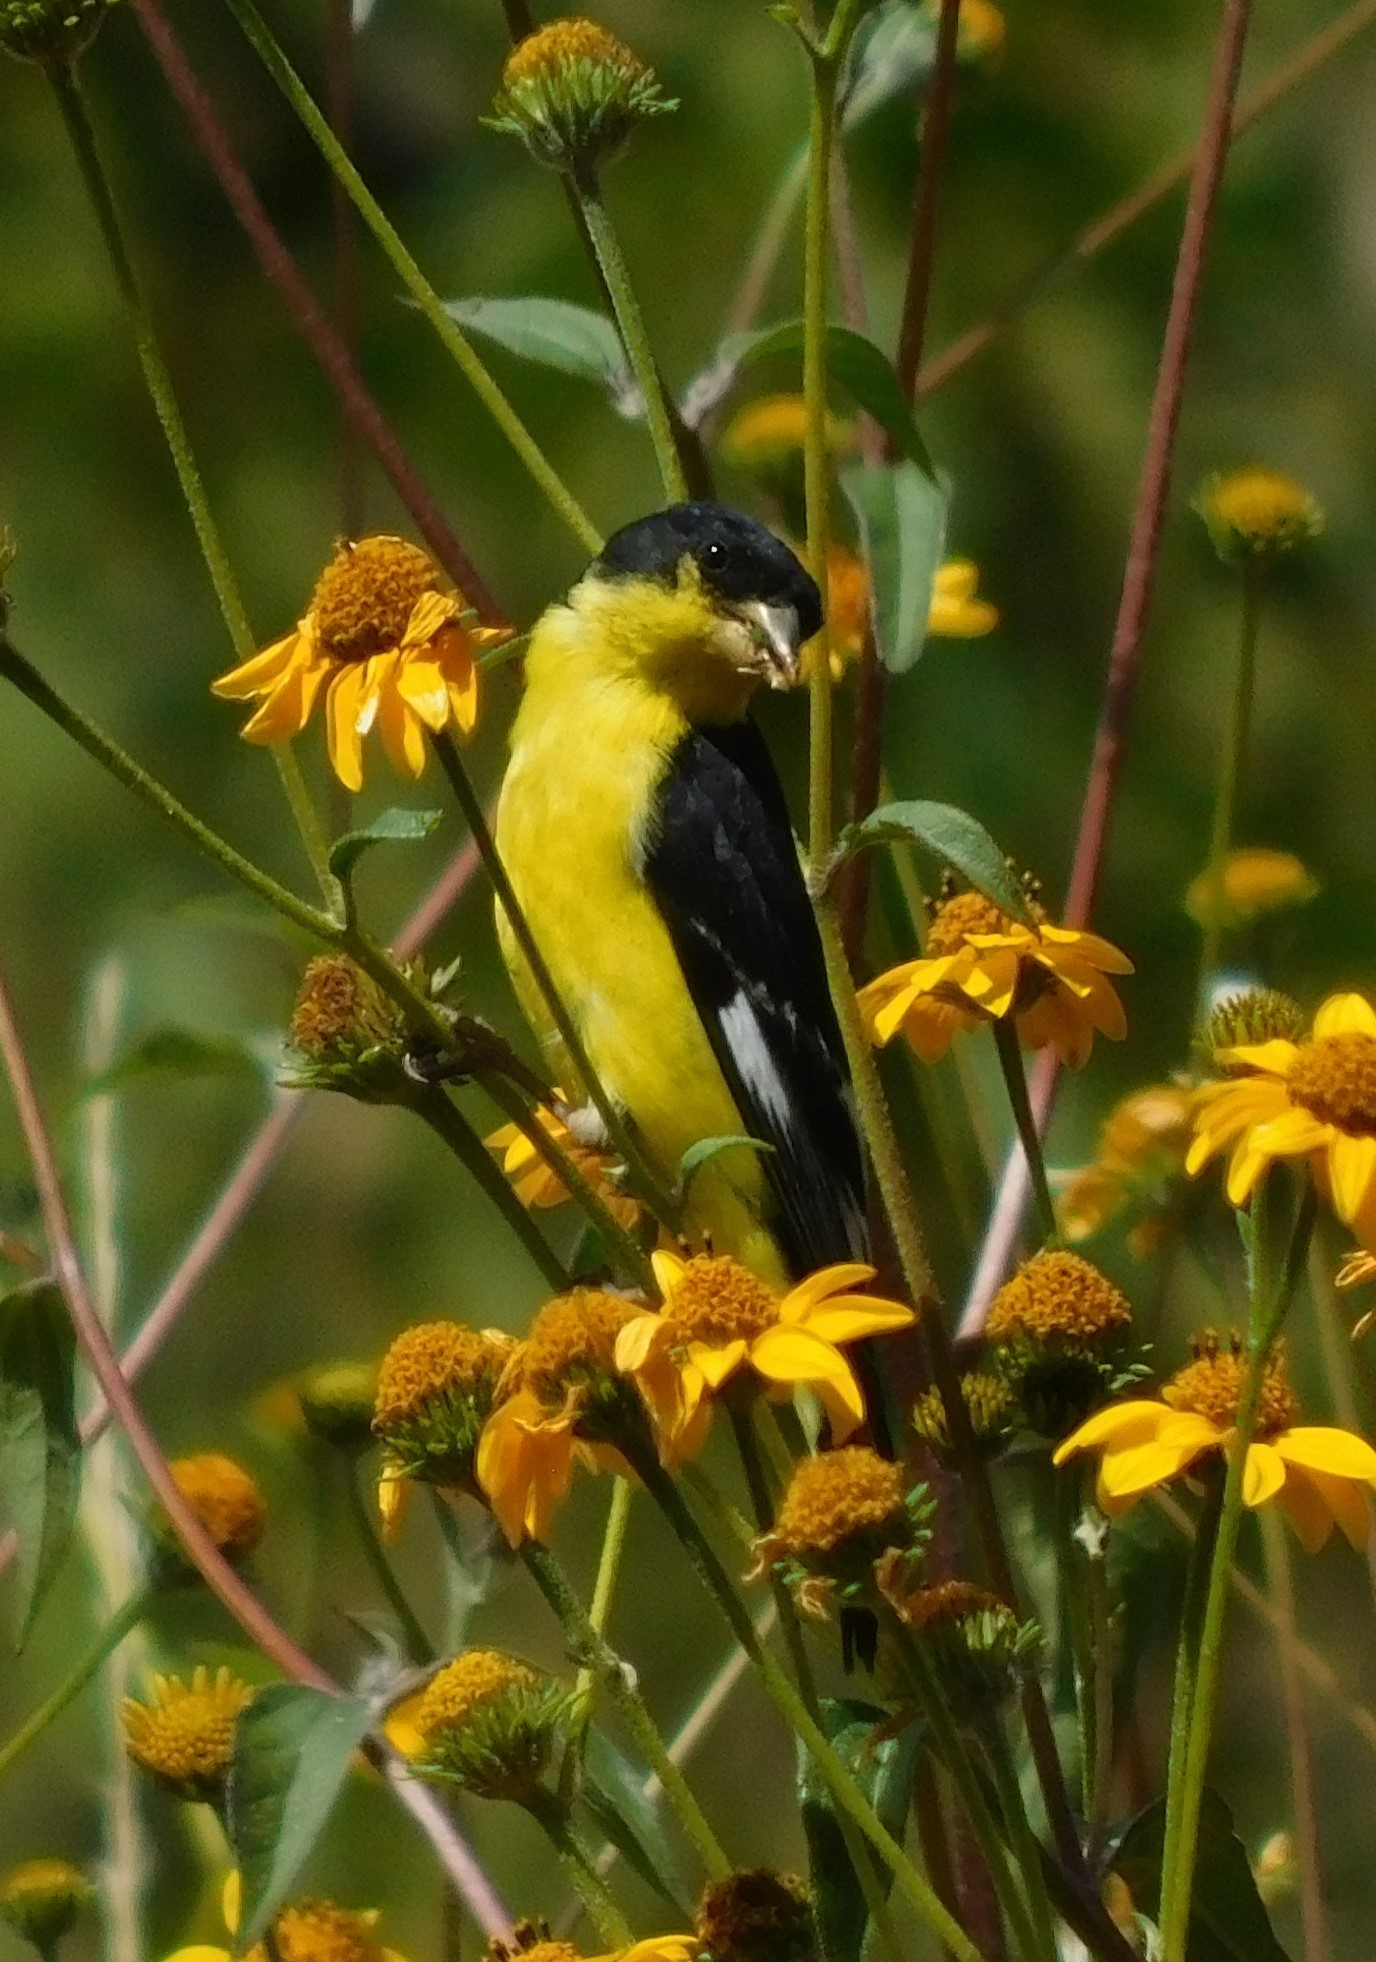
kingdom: Animalia
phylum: Chordata
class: Aves
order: Passeriformes
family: Fringillidae
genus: Spinus
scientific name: Spinus psaltria
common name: Lesser goldfinch
